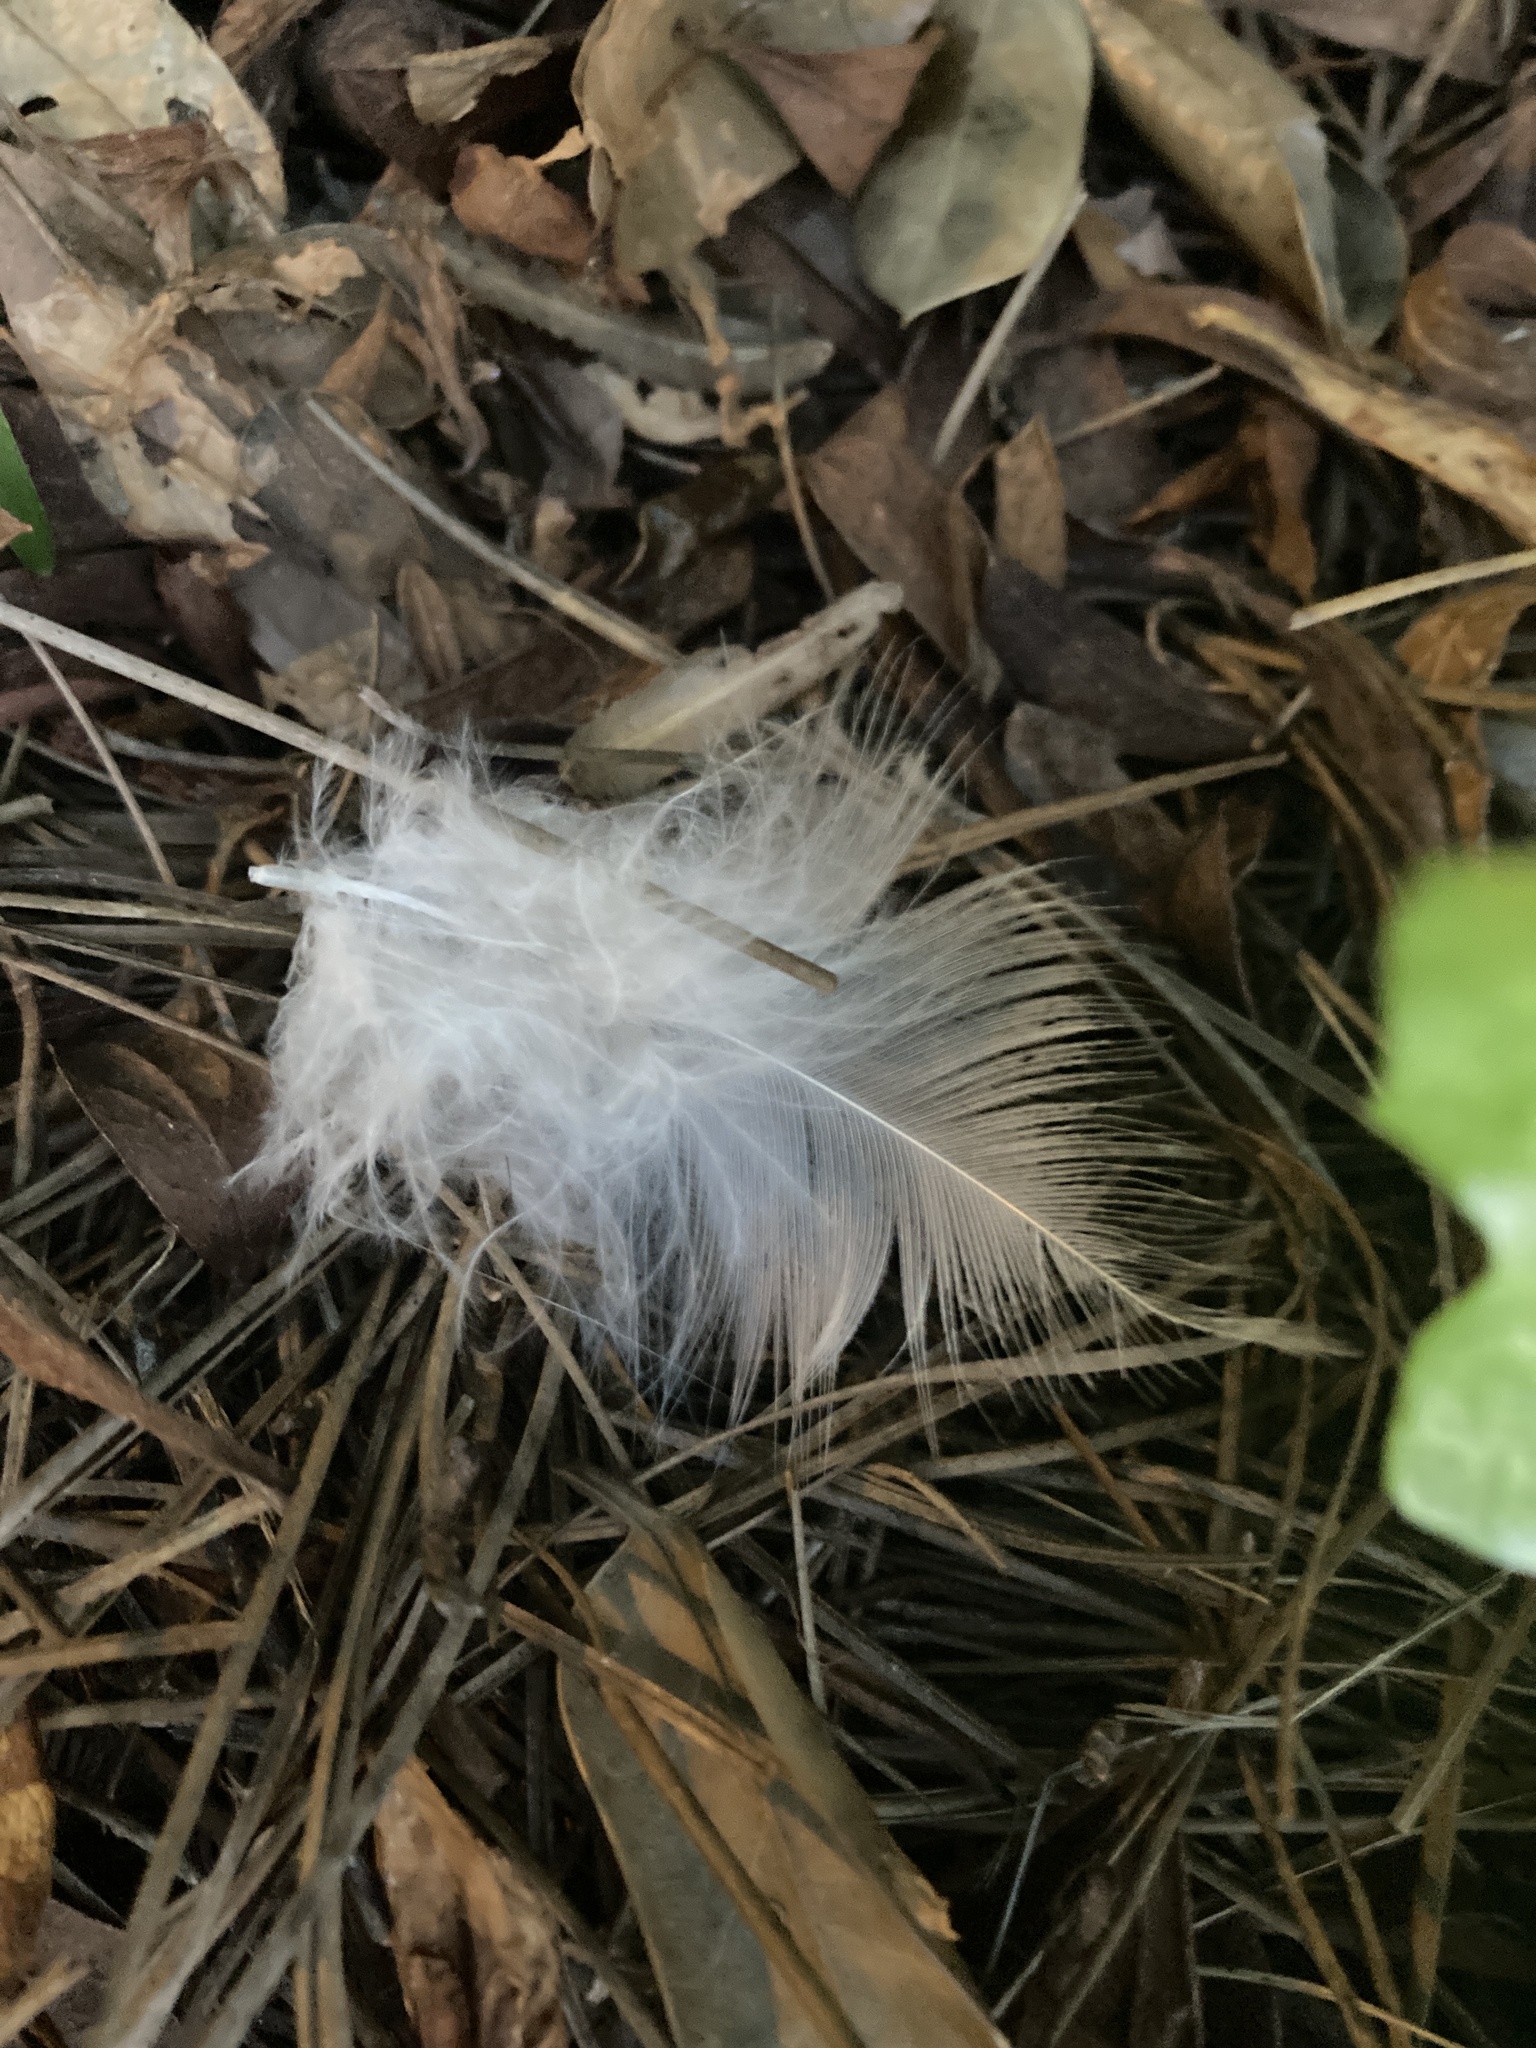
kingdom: Animalia
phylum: Chordata
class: Aves
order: Accipitriformes
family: Accipitridae
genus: Buteo
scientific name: Buteo jamaicensis
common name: Red-tailed hawk
